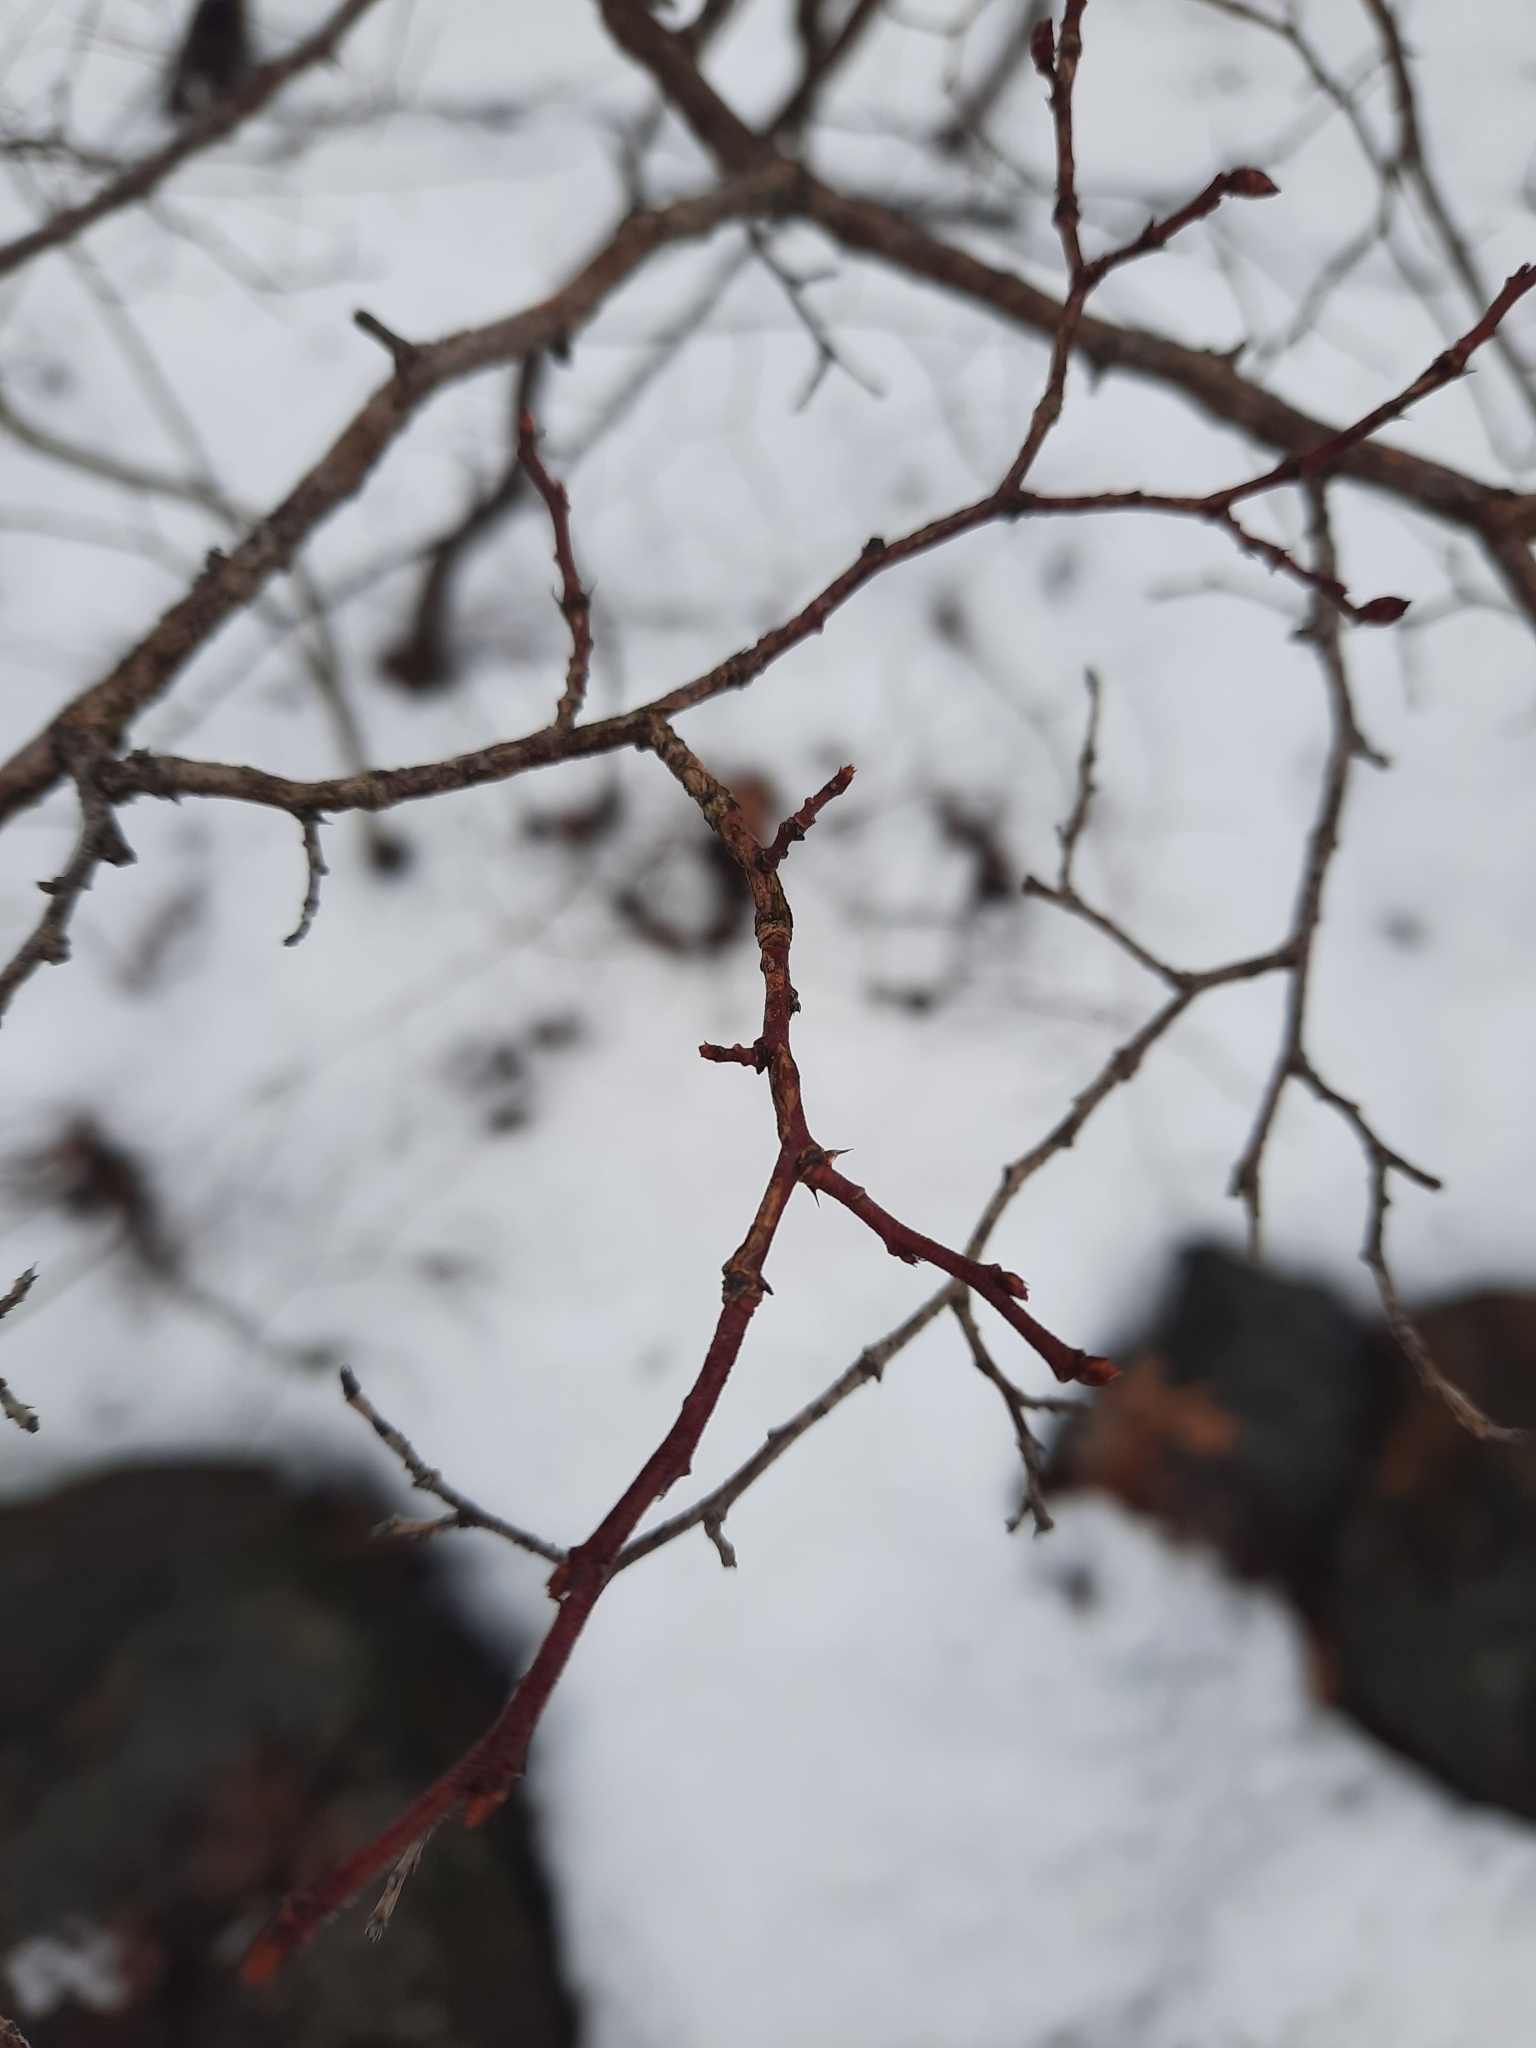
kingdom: Plantae
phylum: Tracheophyta
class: Magnoliopsida
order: Ericales
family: Ericaceae
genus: Vaccinium
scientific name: Vaccinium corymbosum
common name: Blueberry
